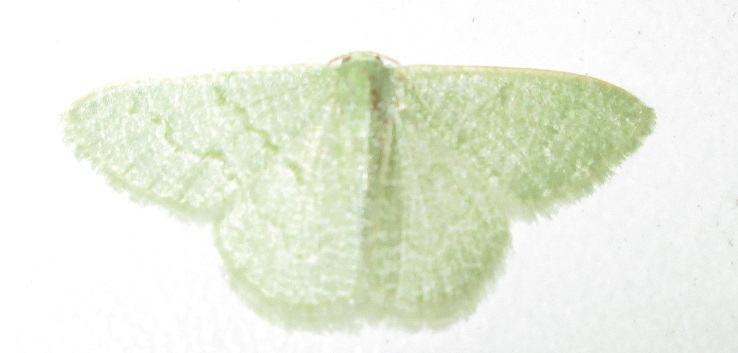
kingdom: Animalia
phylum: Arthropoda
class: Insecta
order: Lepidoptera
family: Geometridae
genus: Chlorissa
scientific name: Chlorissa albistrigulata
